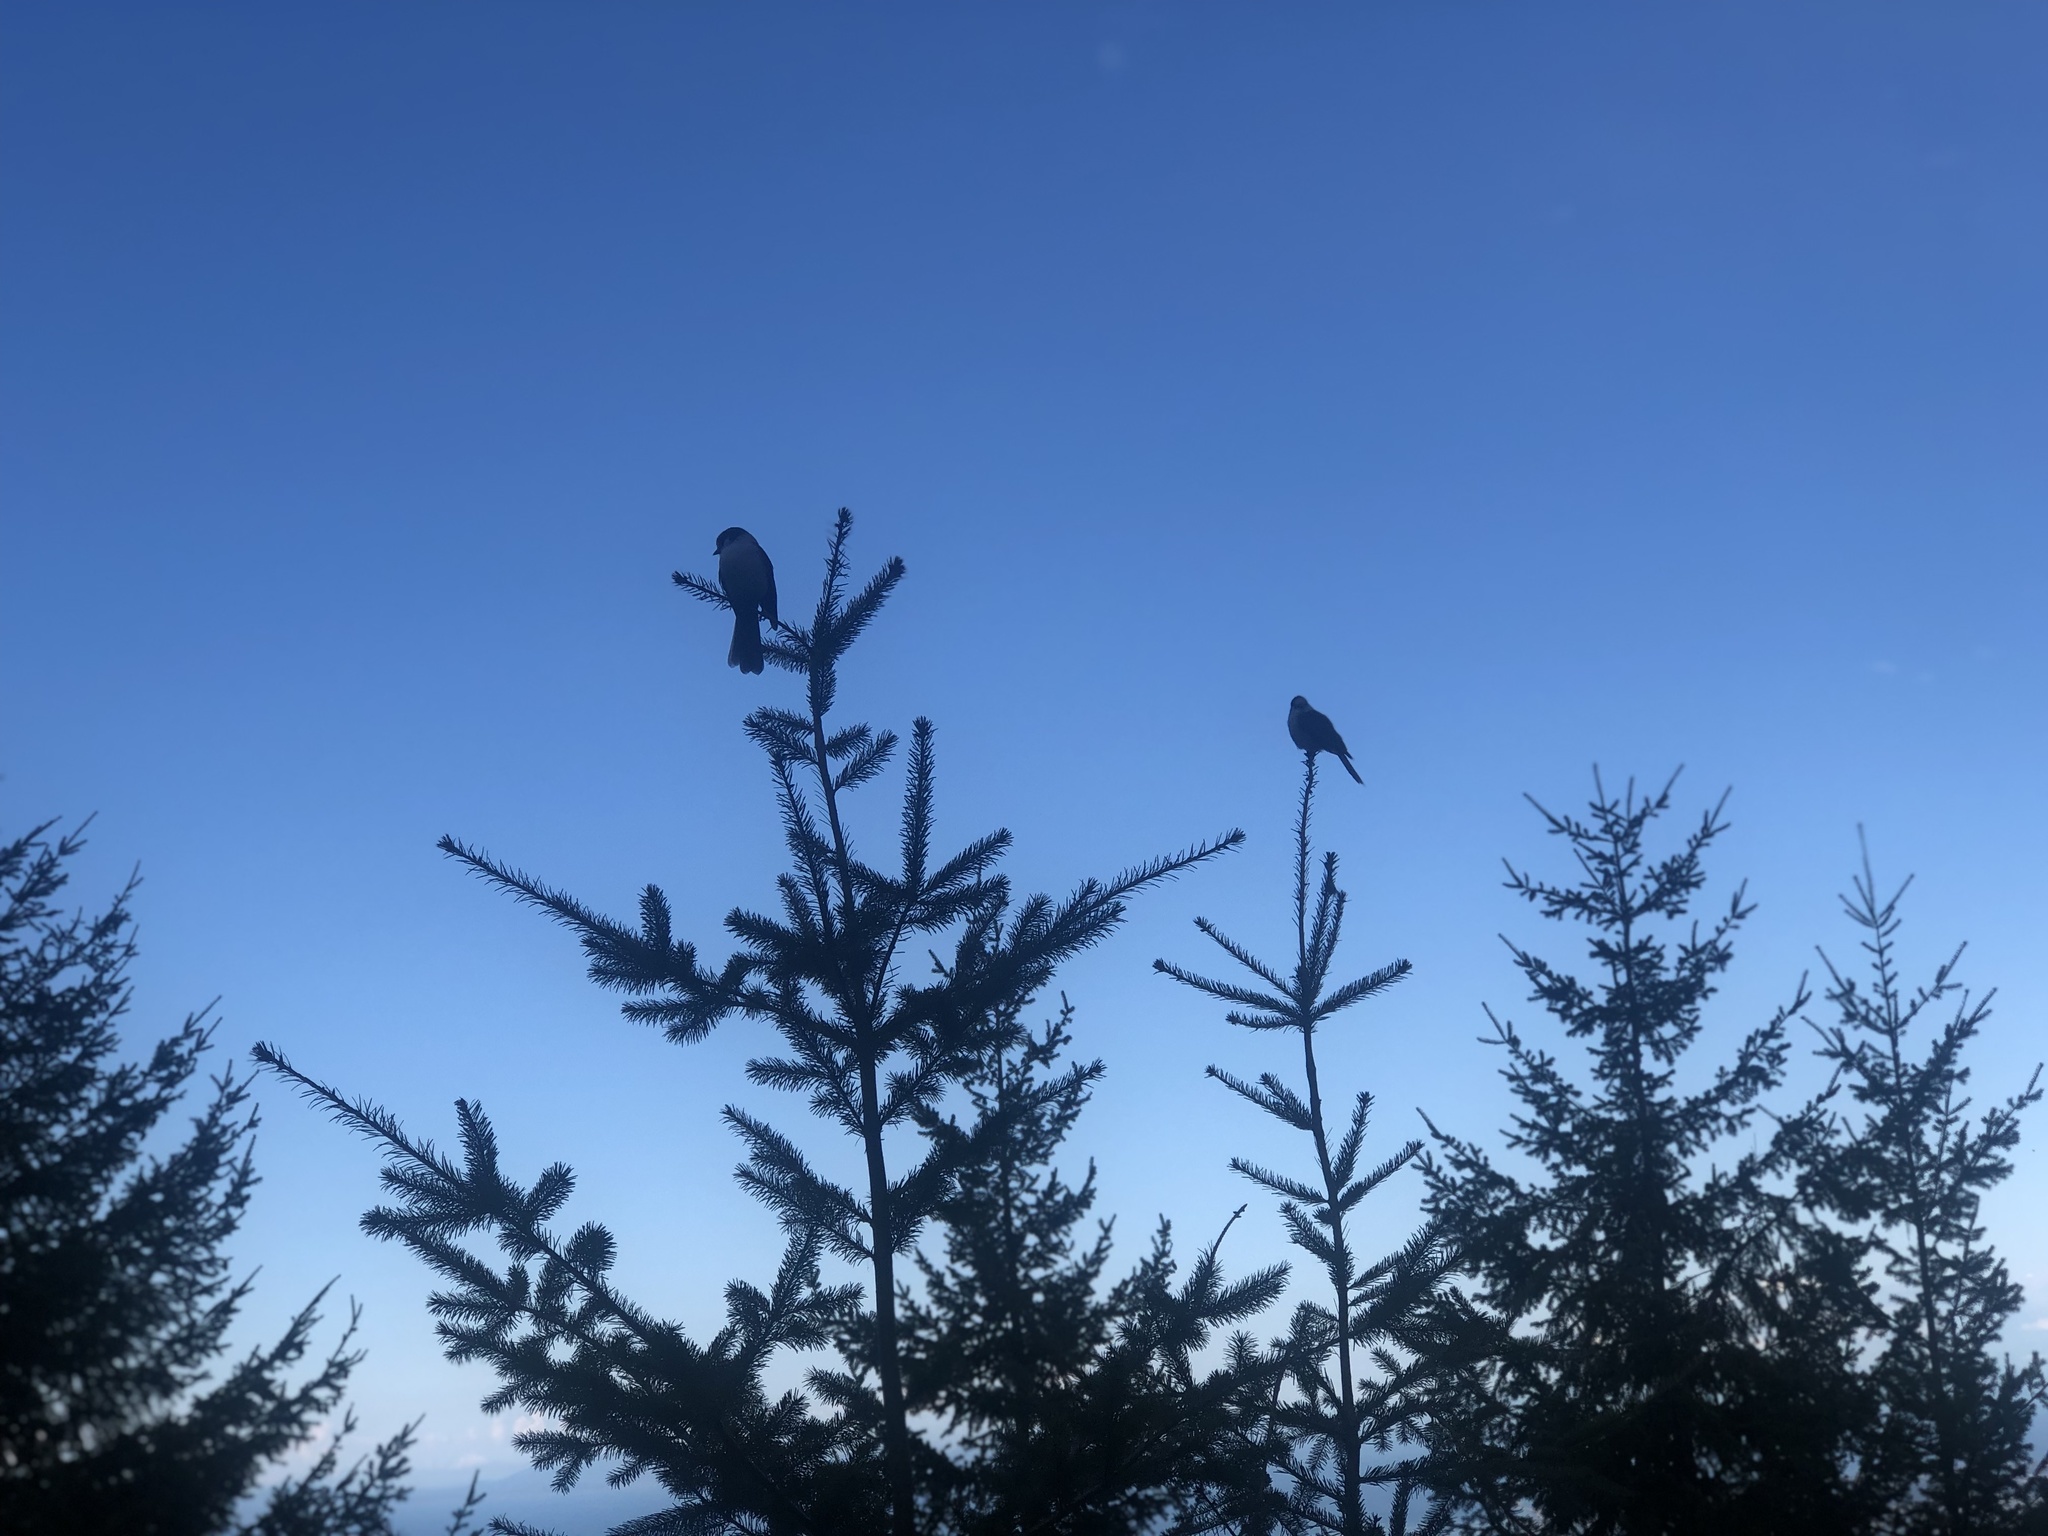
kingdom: Animalia
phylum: Chordata
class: Aves
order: Passeriformes
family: Corvidae
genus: Perisoreus
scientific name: Perisoreus canadensis
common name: Gray jay
